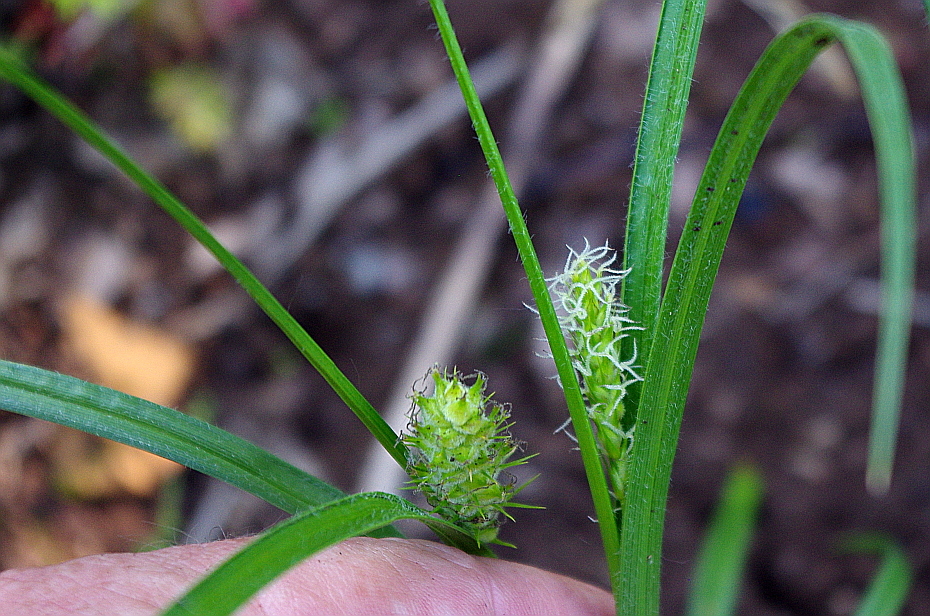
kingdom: Plantae
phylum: Tracheophyta
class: Liliopsida
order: Poales
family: Cyperaceae
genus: Carex
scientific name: Carex hirta
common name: Hairy sedge
